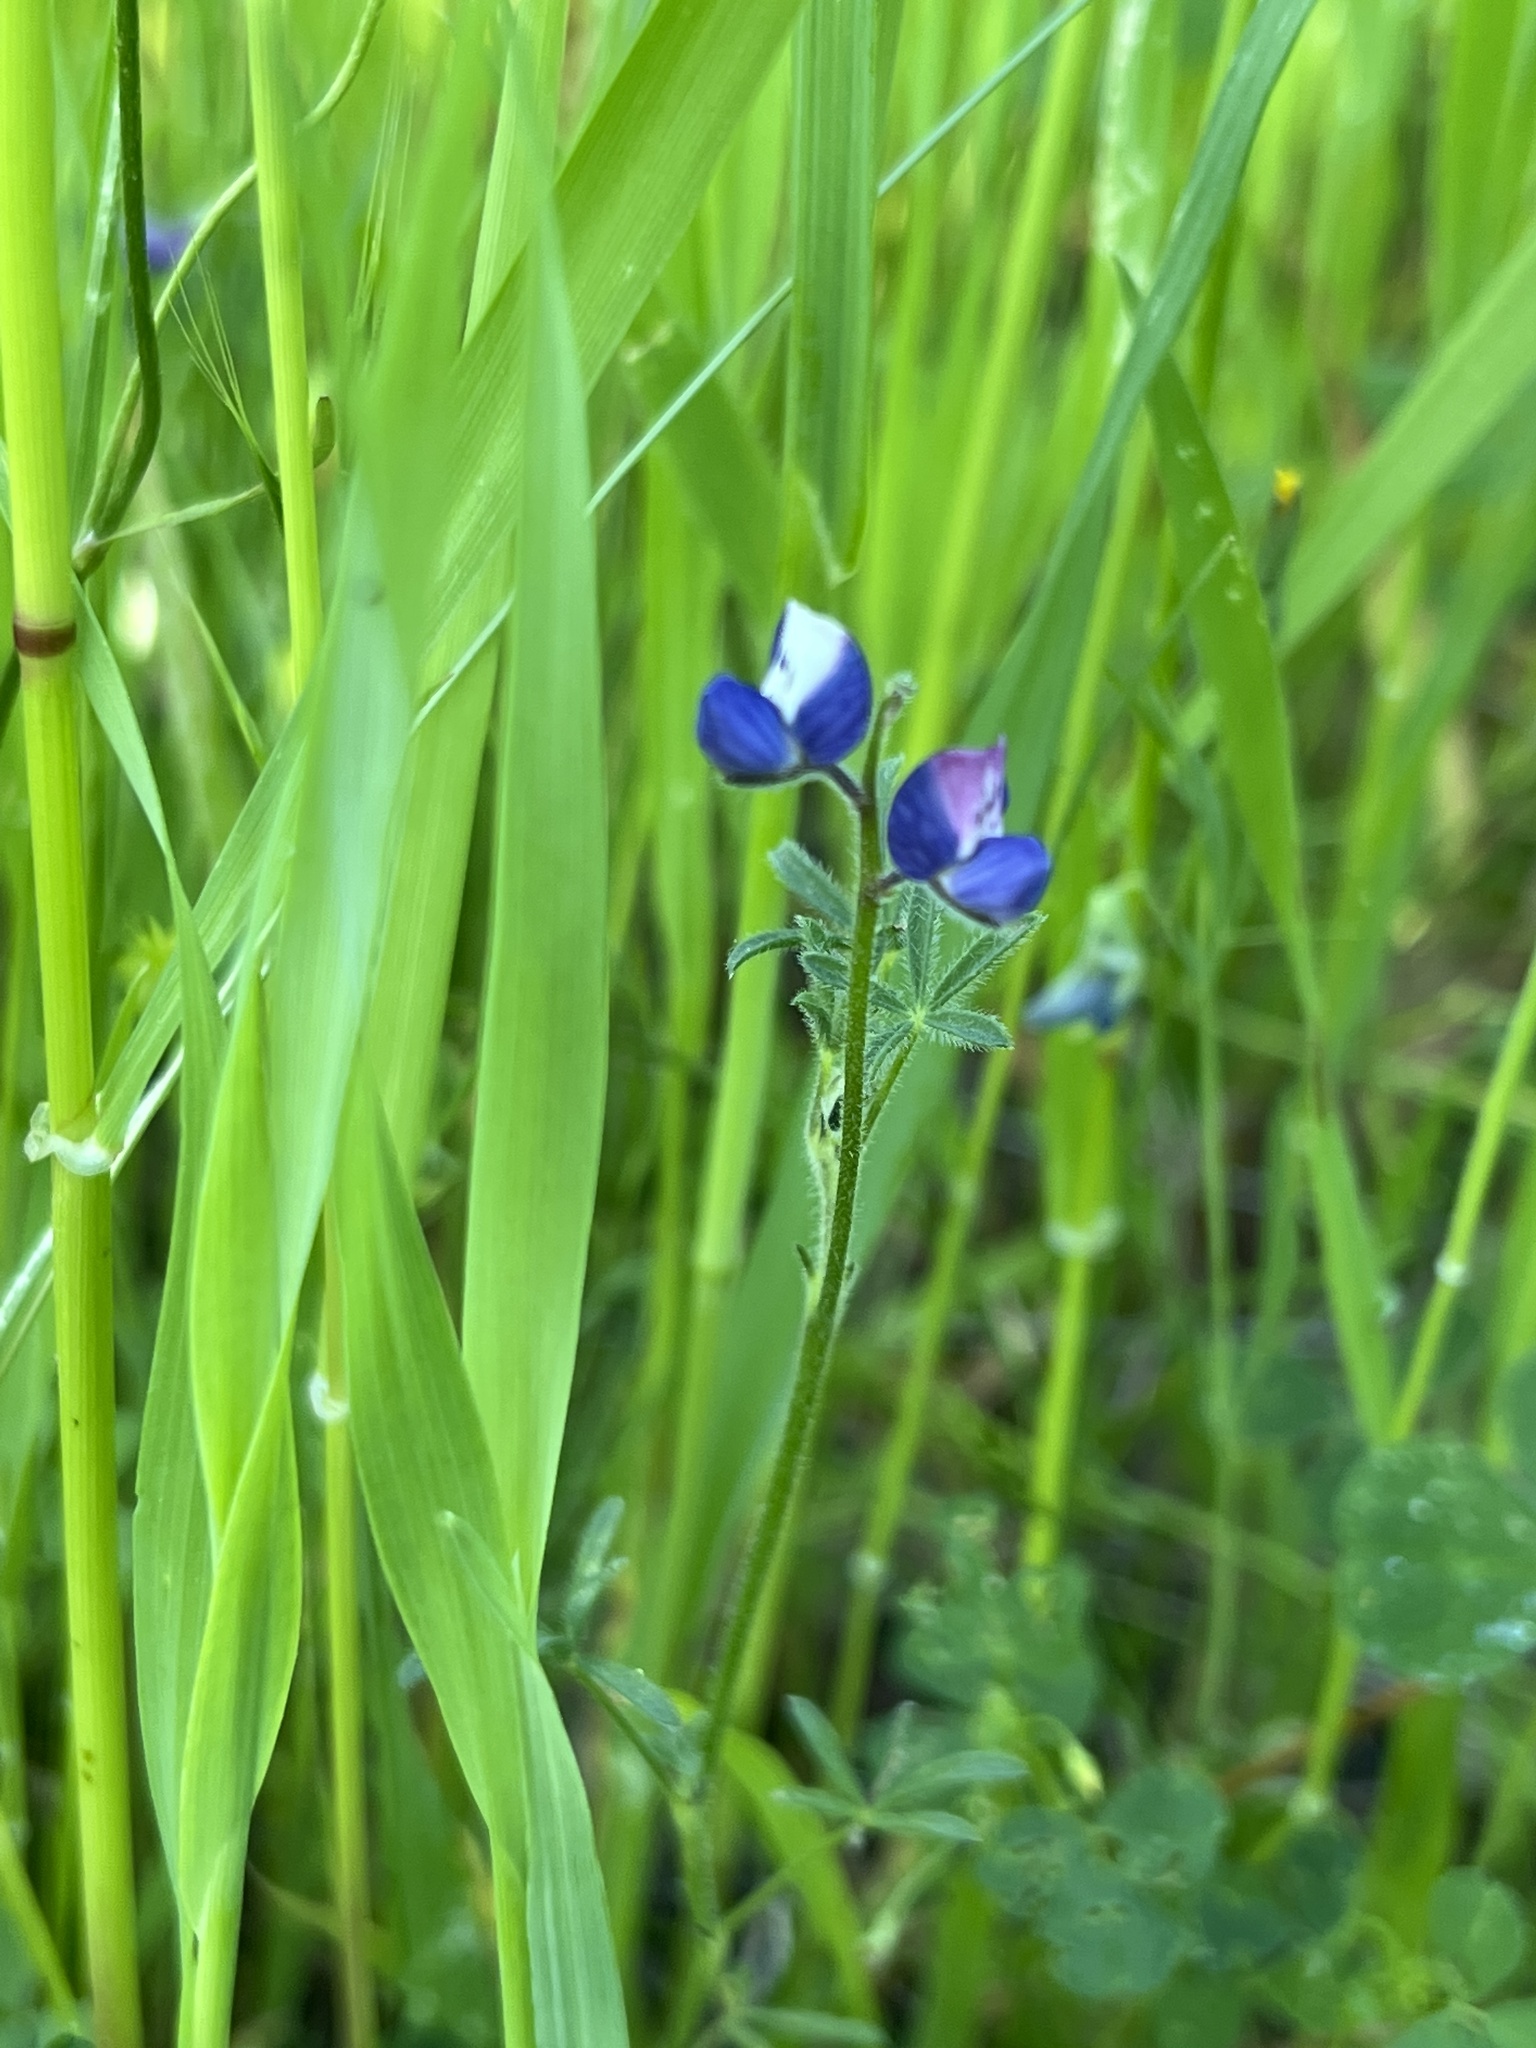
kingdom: Plantae
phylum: Tracheophyta
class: Magnoliopsida
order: Fabales
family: Fabaceae
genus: Lupinus
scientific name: Lupinus bicolor
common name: Miniature lupine
